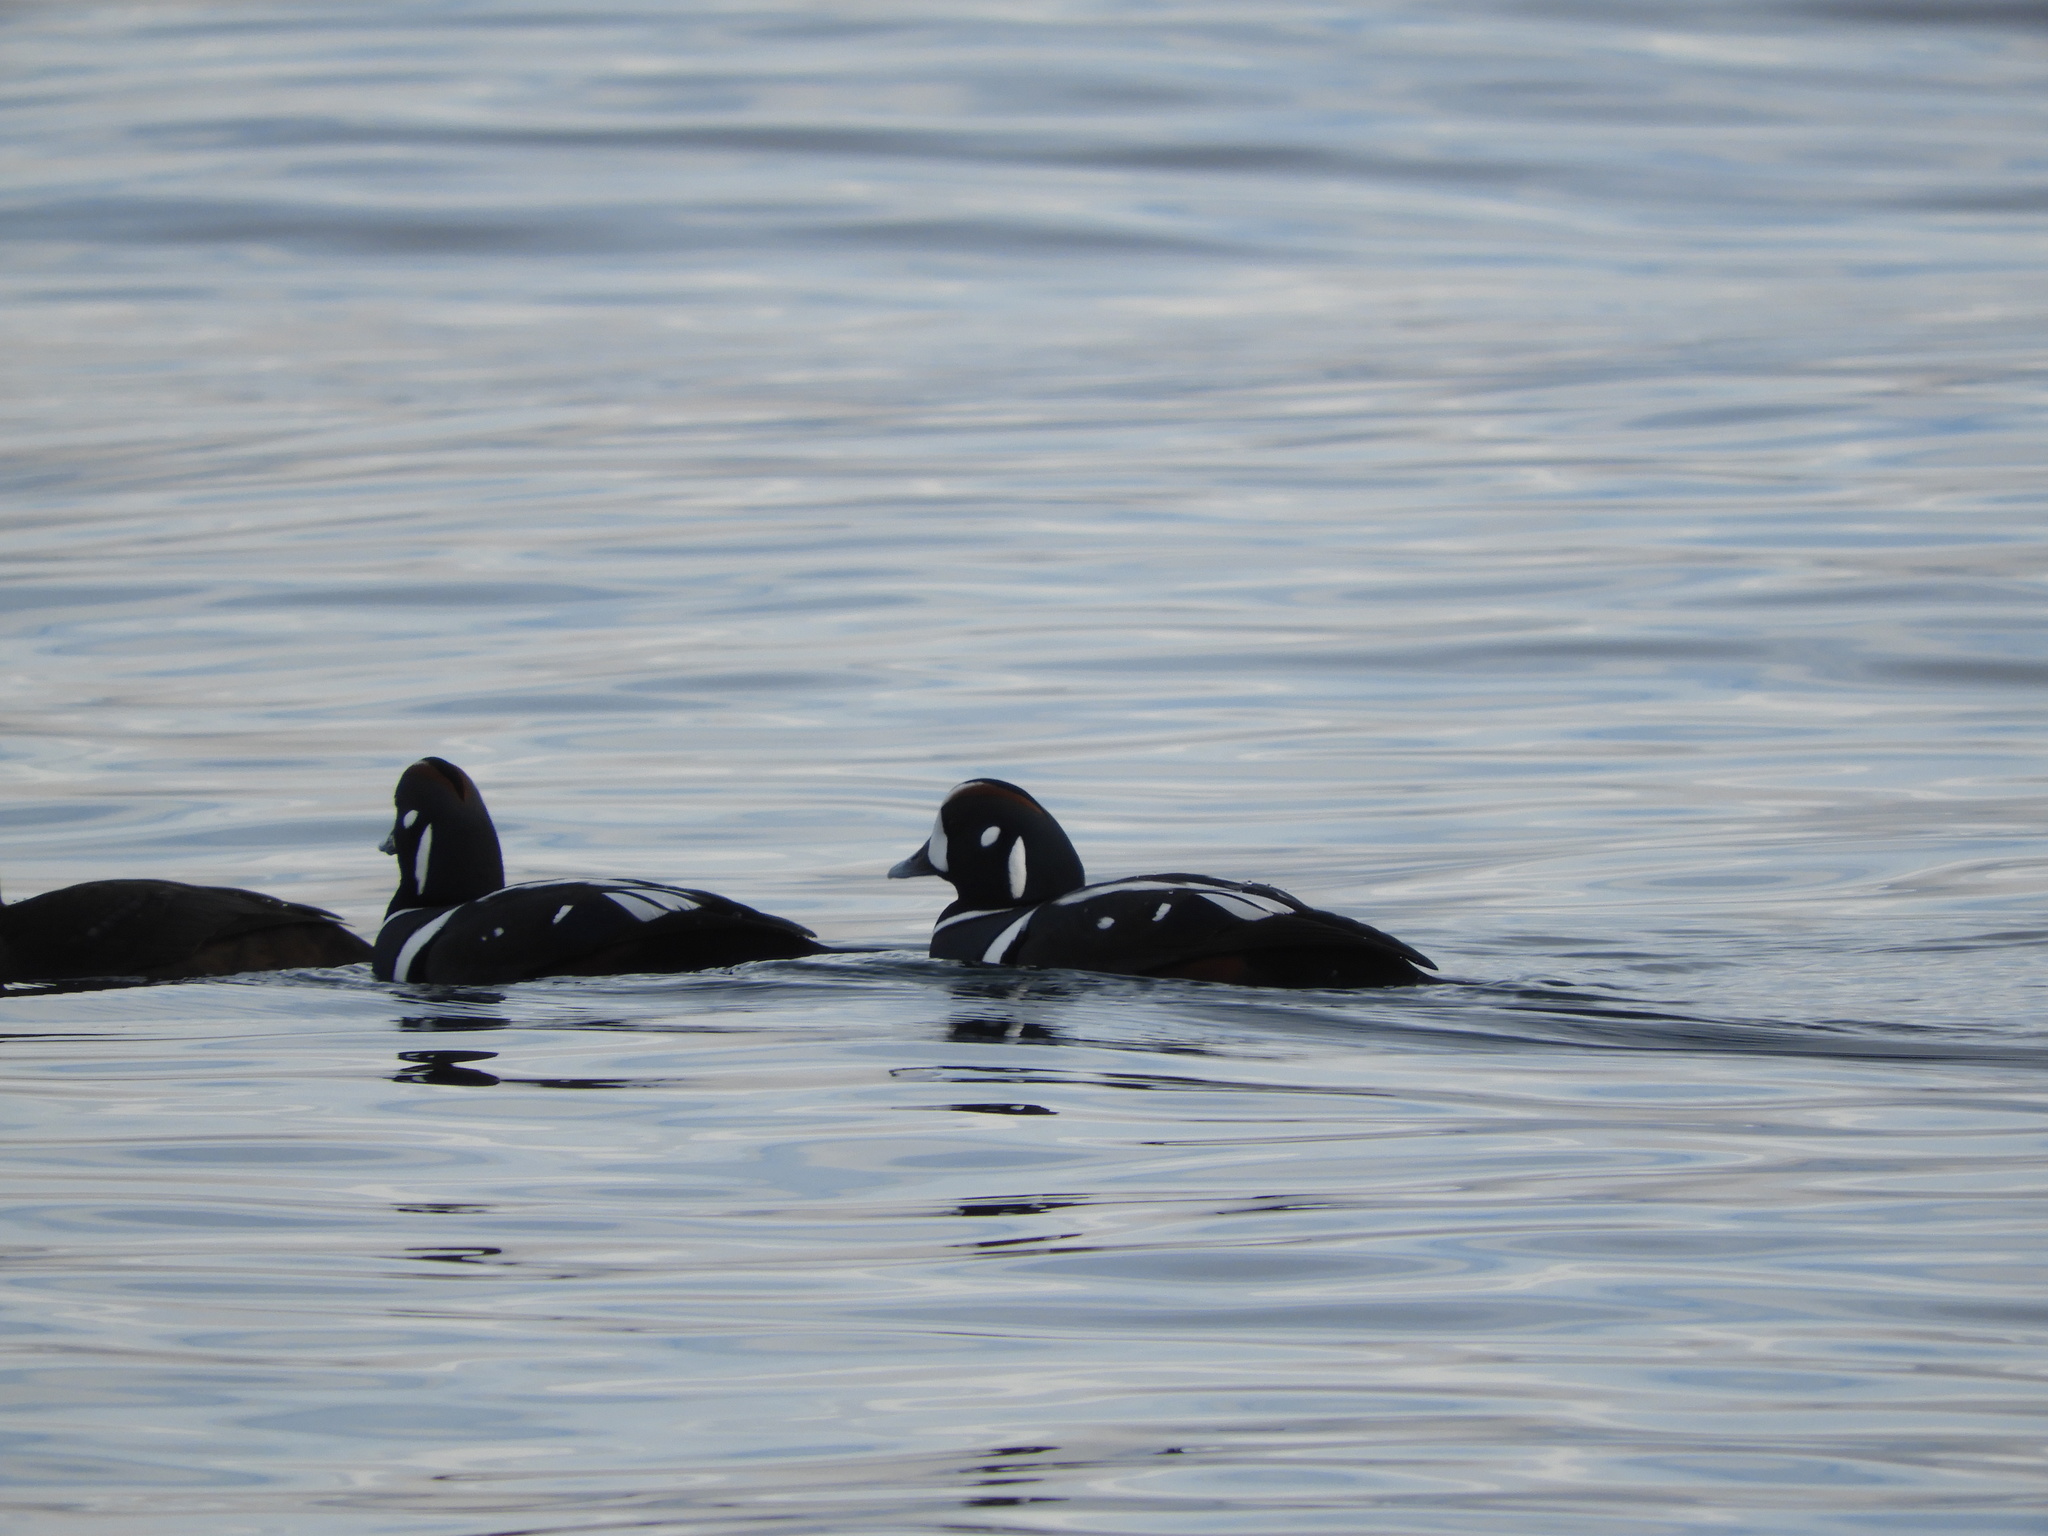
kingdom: Animalia
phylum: Chordata
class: Aves
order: Anseriformes
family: Anatidae
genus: Histrionicus
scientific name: Histrionicus histrionicus
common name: Harlequin duck
